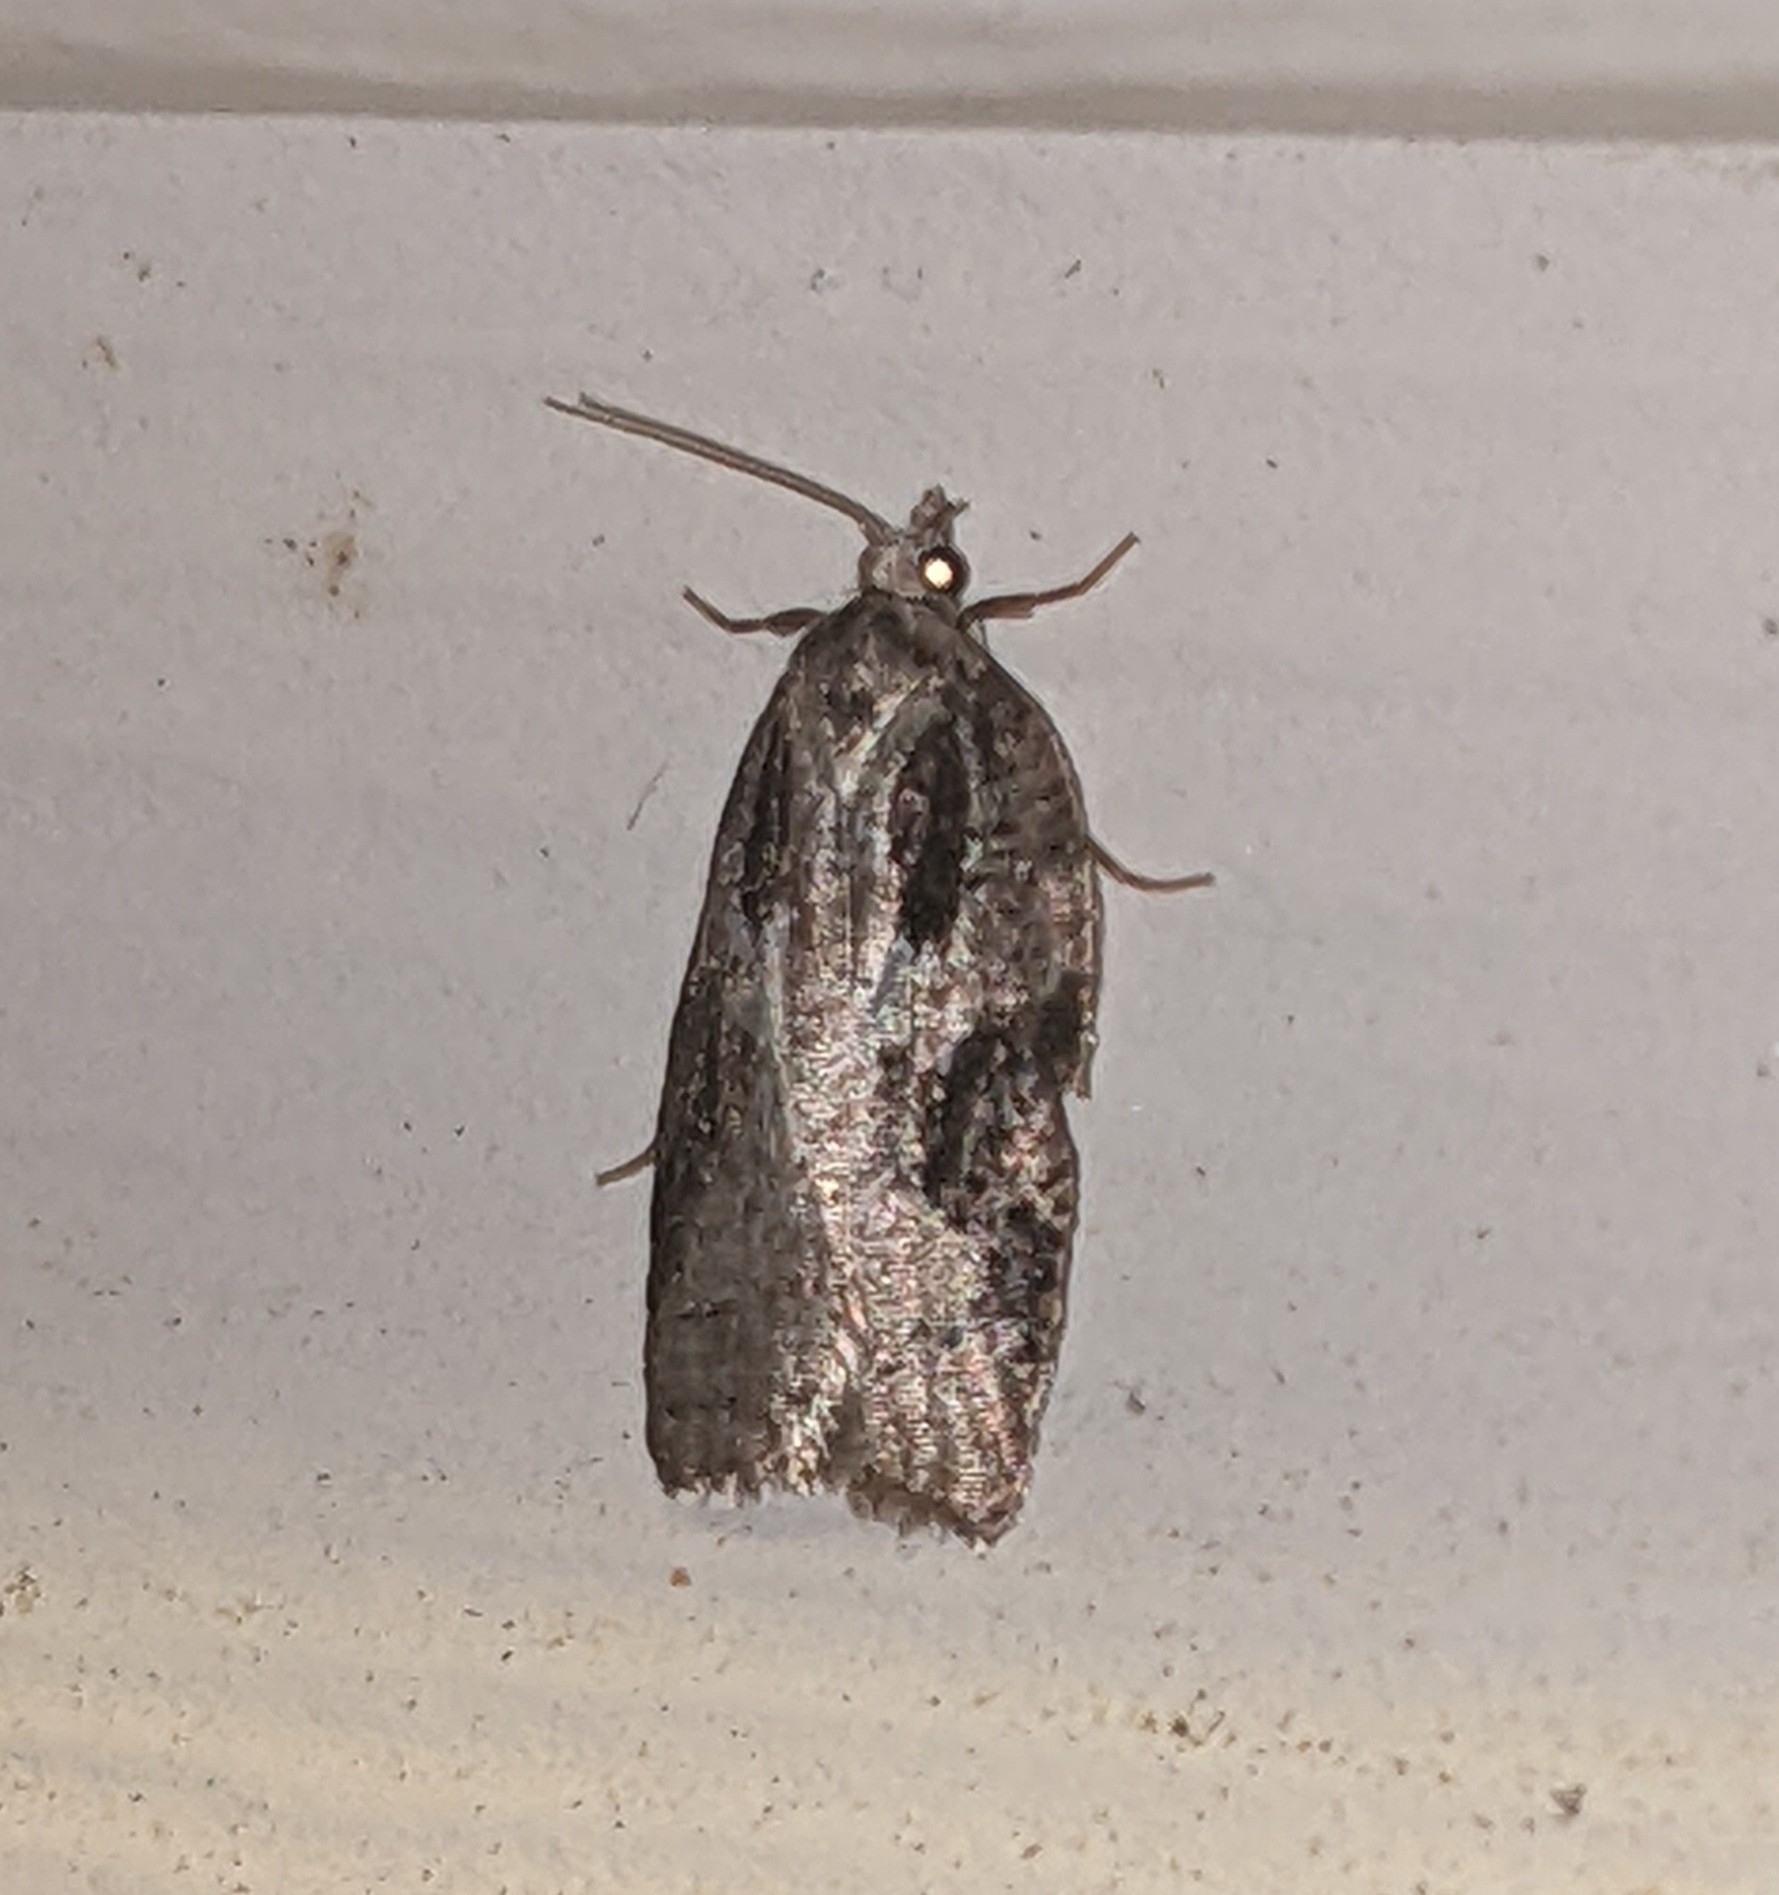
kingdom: Animalia
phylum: Arthropoda
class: Insecta
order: Lepidoptera
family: Tortricidae
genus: Acleris
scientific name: Acleris
